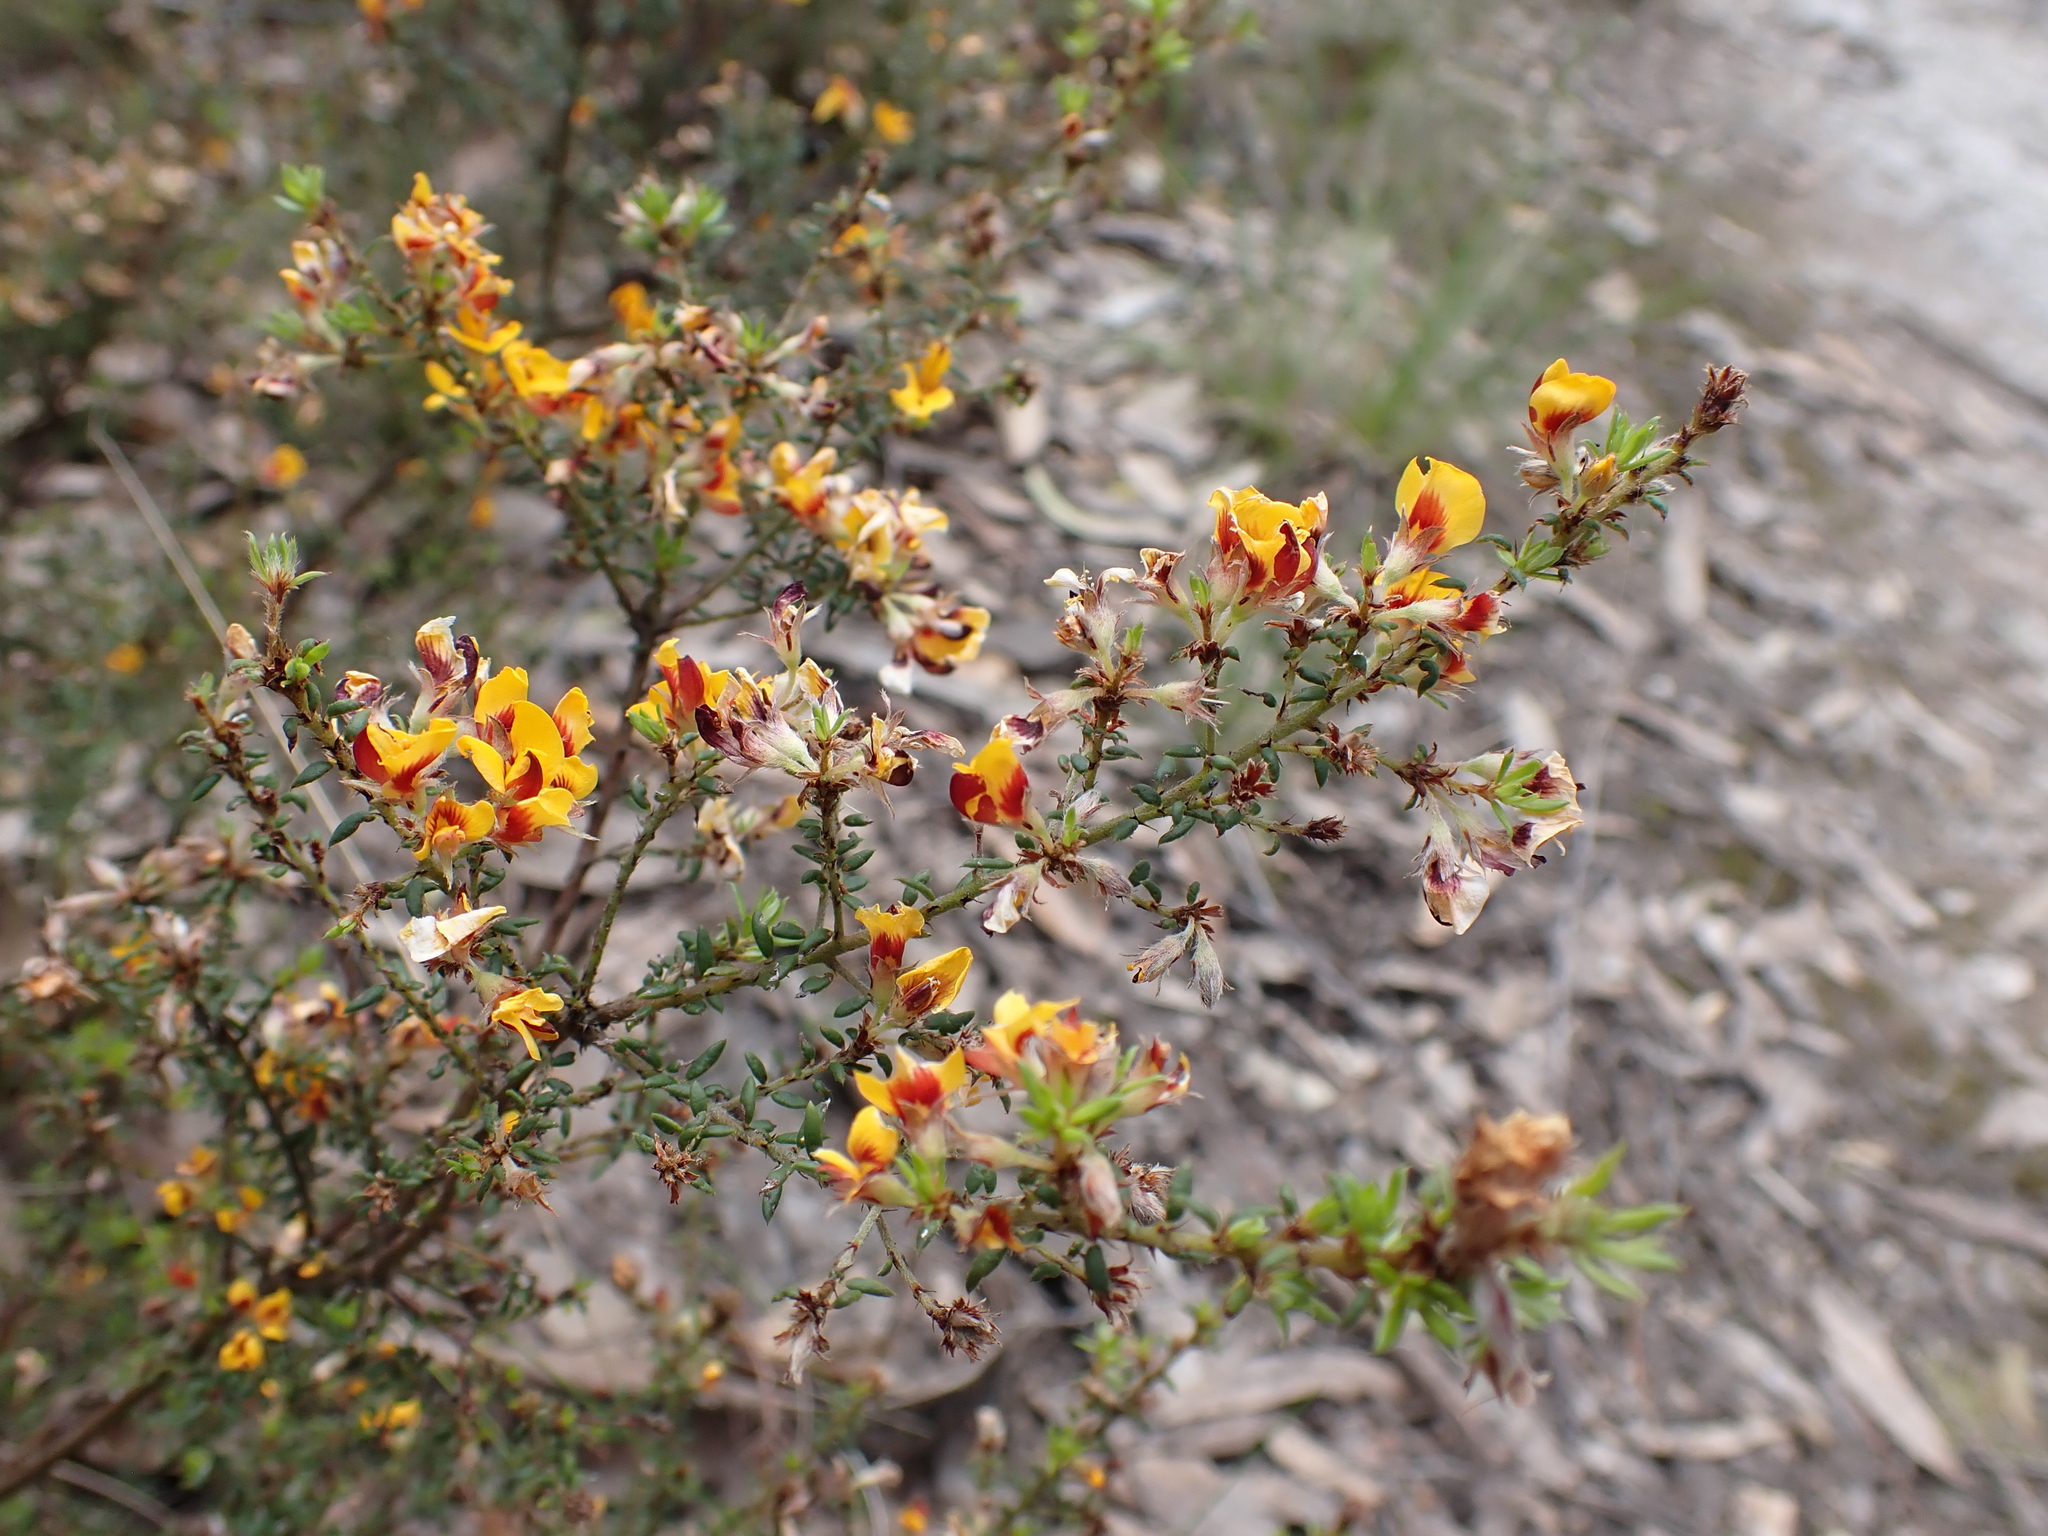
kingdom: Plantae
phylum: Tracheophyta
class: Magnoliopsida
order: Fabales
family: Fabaceae
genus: Pultenaea
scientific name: Pultenaea gunnii
